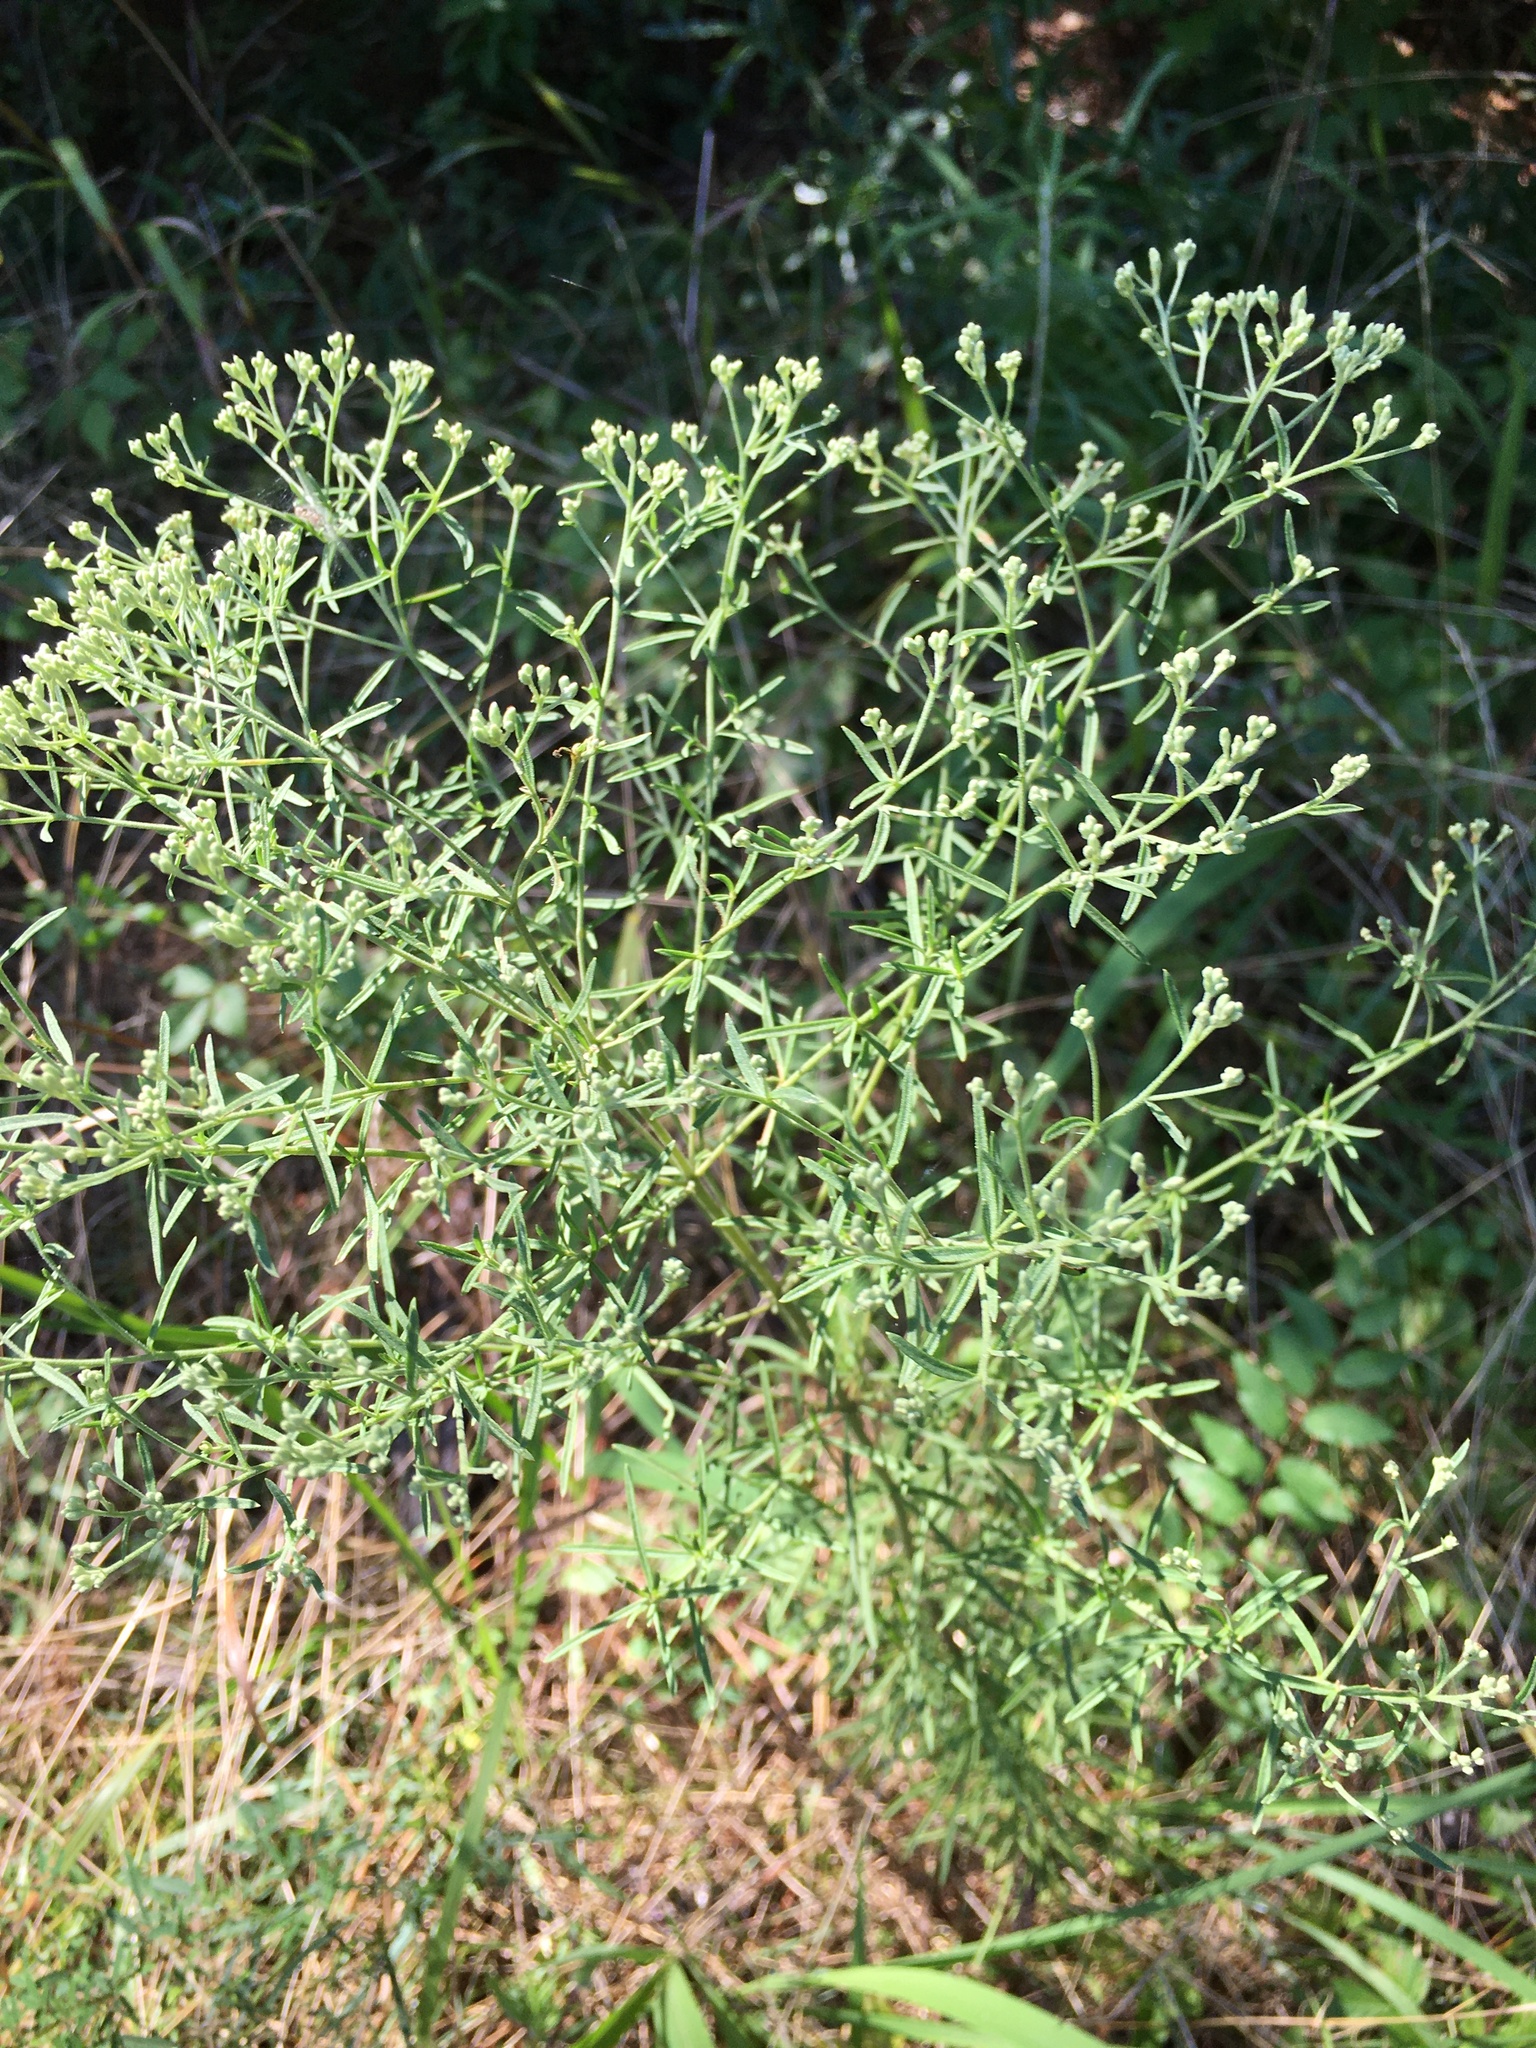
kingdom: Plantae
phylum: Tracheophyta
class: Magnoliopsida
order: Asterales
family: Asteraceae
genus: Eupatorium
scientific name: Eupatorium hyssopifolium
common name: Hyssop-leaf thoroughwort
